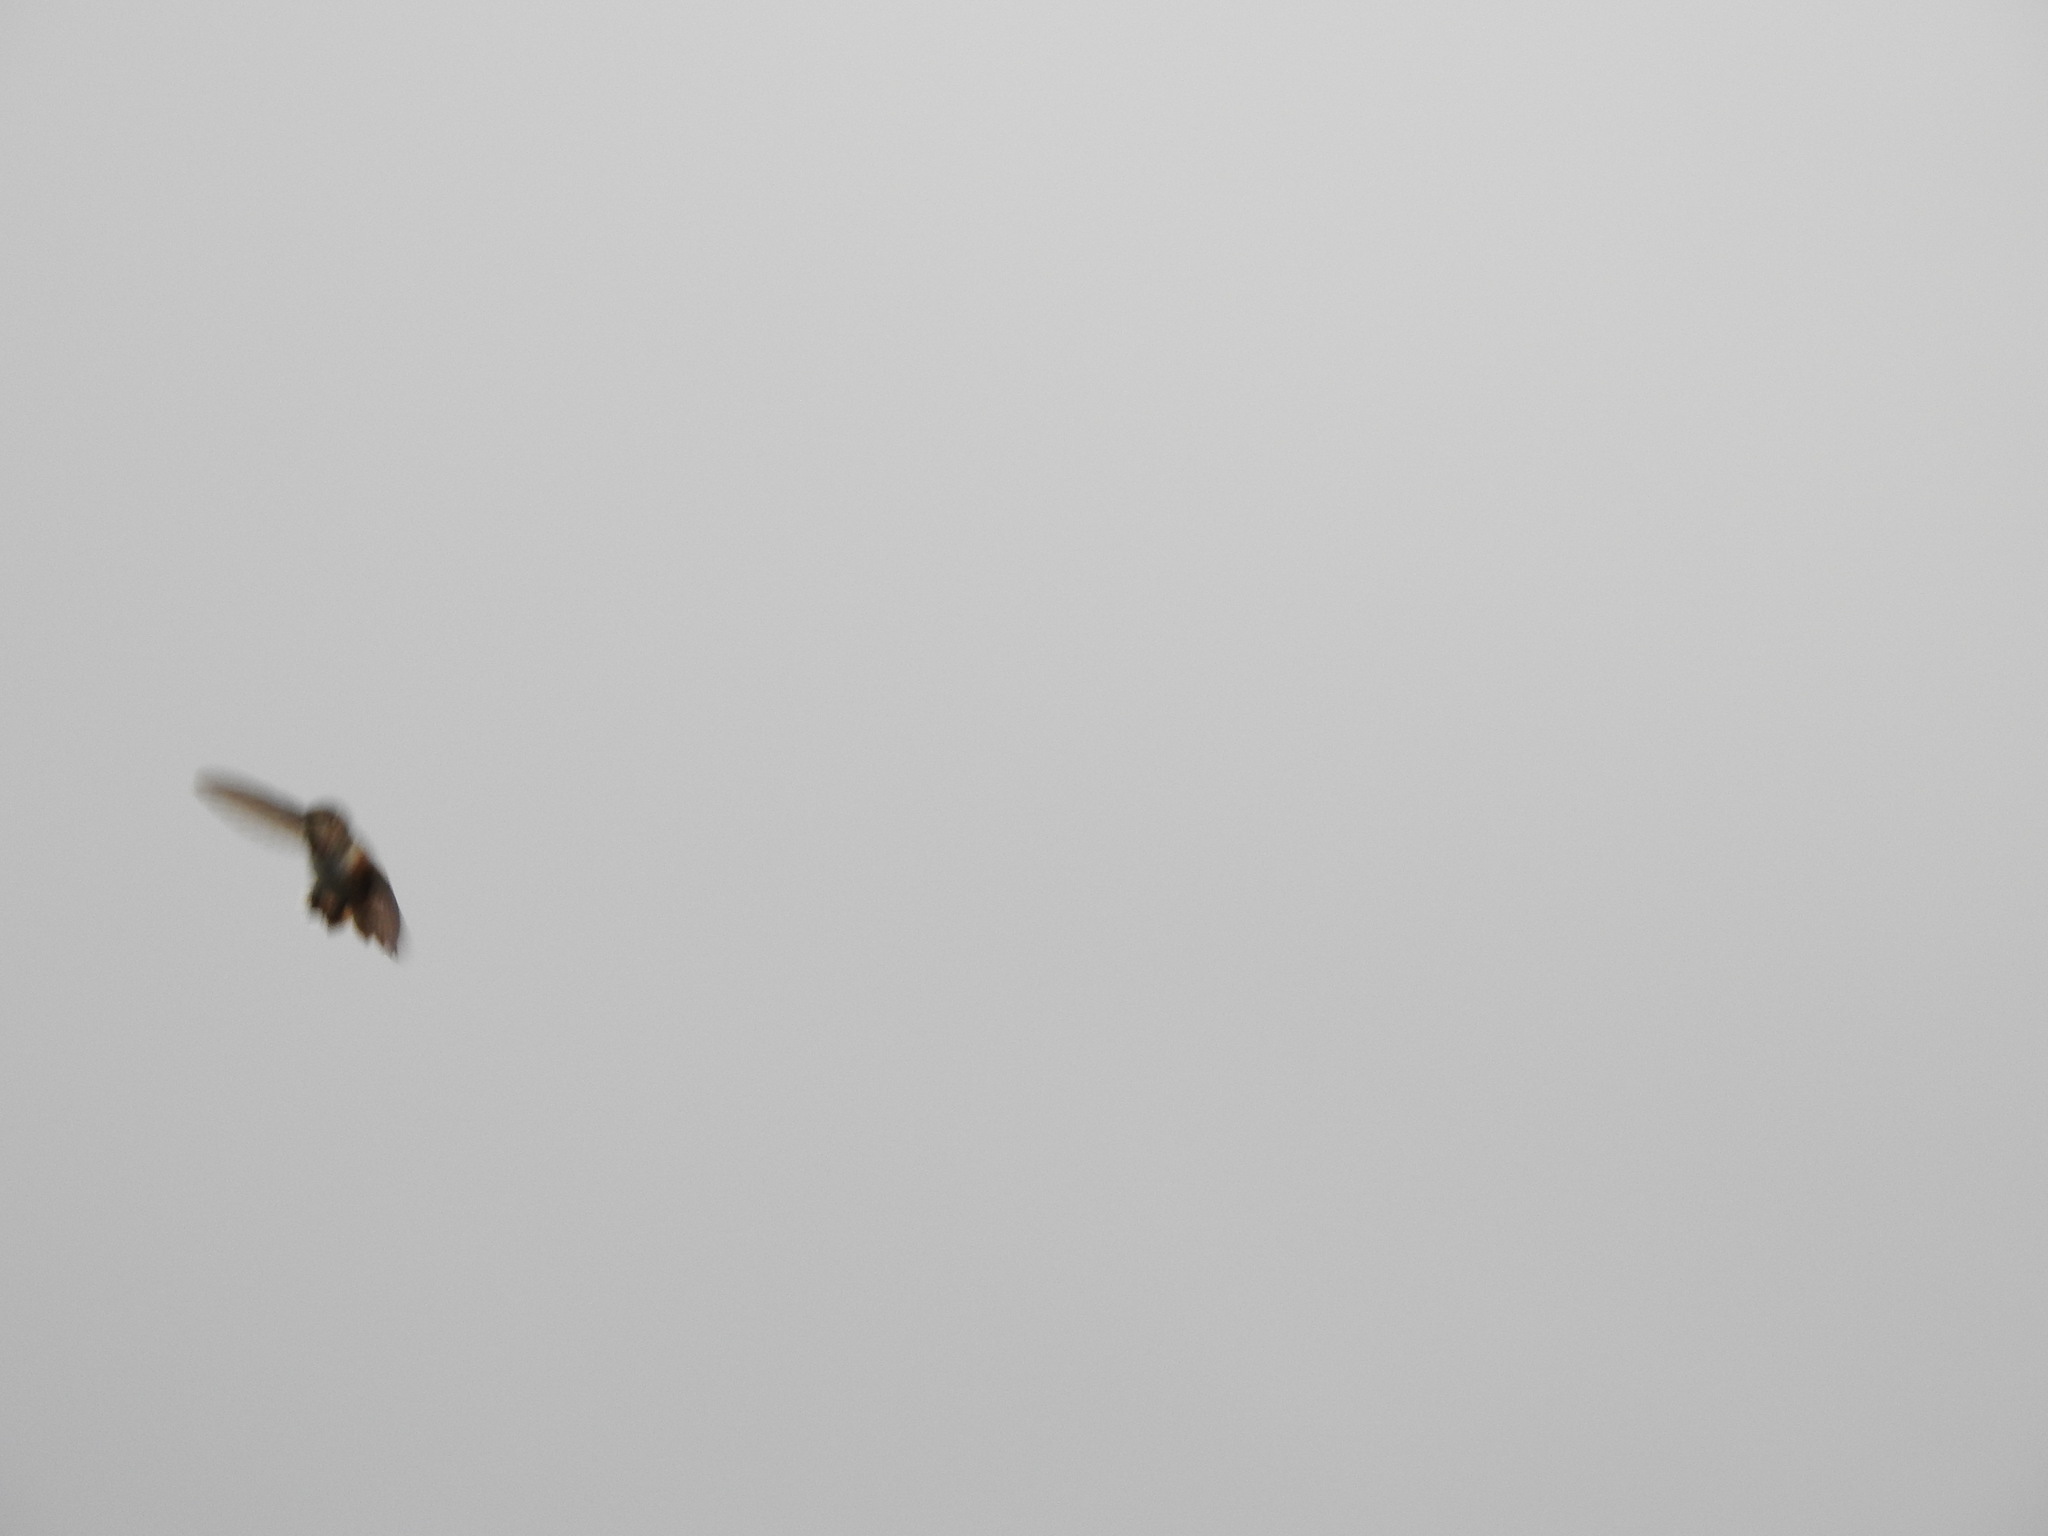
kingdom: Animalia
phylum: Chordata
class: Aves
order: Apodiformes
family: Trochilidae
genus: Selasphorus
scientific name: Selasphorus
